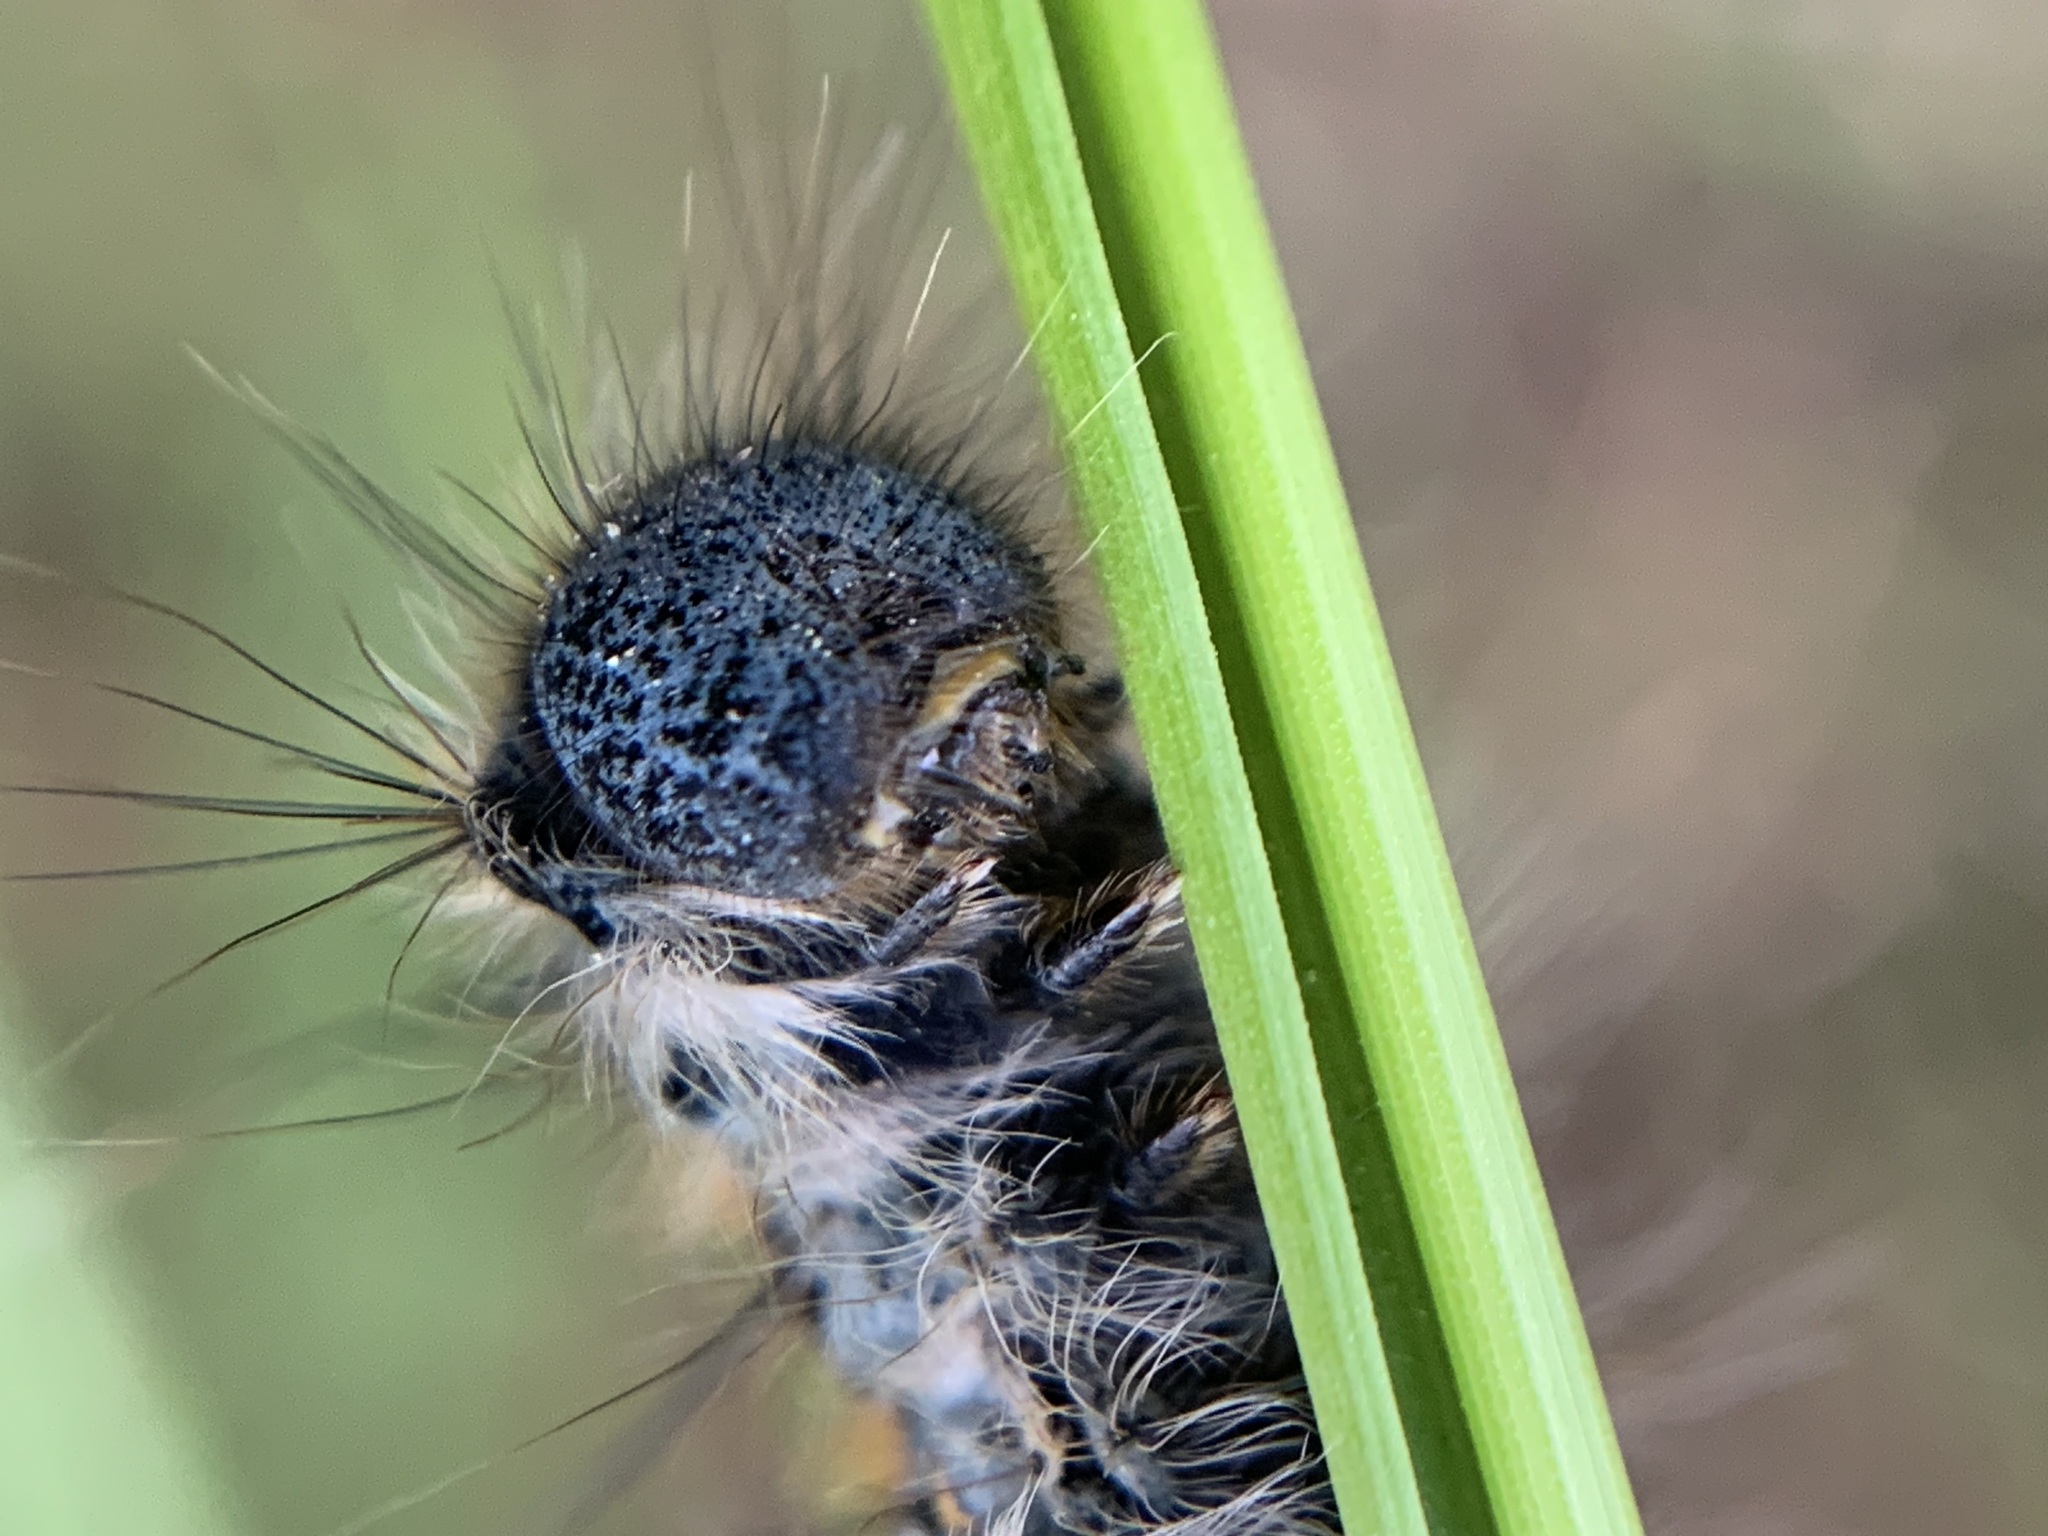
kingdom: Animalia
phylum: Arthropoda
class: Insecta
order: Lepidoptera
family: Lasiocampidae
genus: Malacosoma
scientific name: Malacosoma constricta
